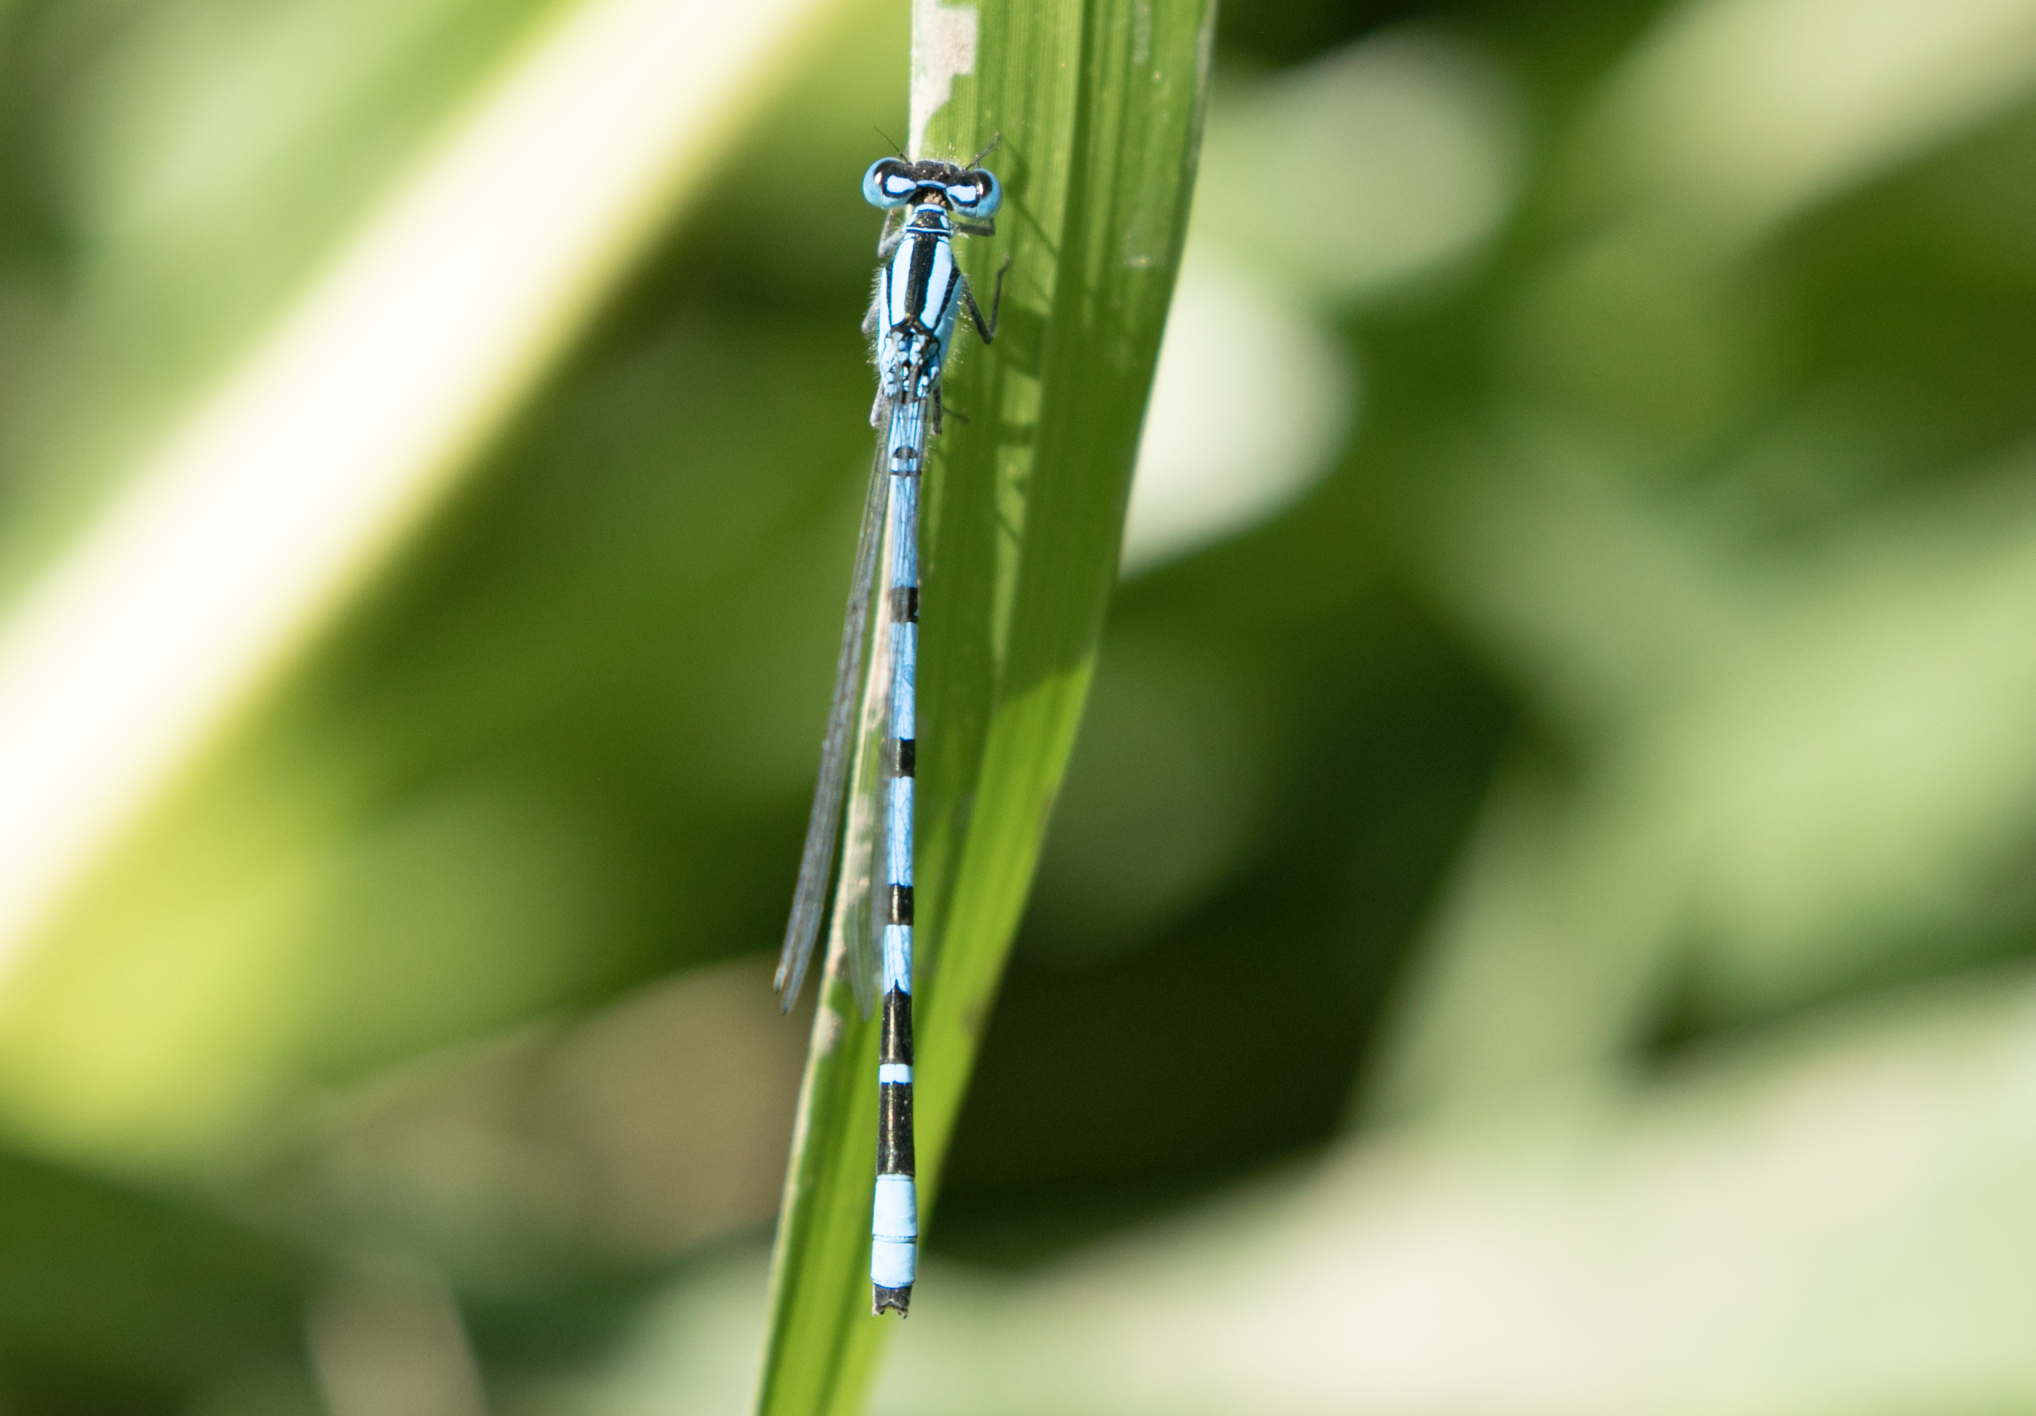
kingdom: Animalia
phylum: Arthropoda
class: Insecta
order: Odonata
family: Coenagrionidae
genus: Enallagma
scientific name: Enallagma cyathigerum
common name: Common blue damselfly
